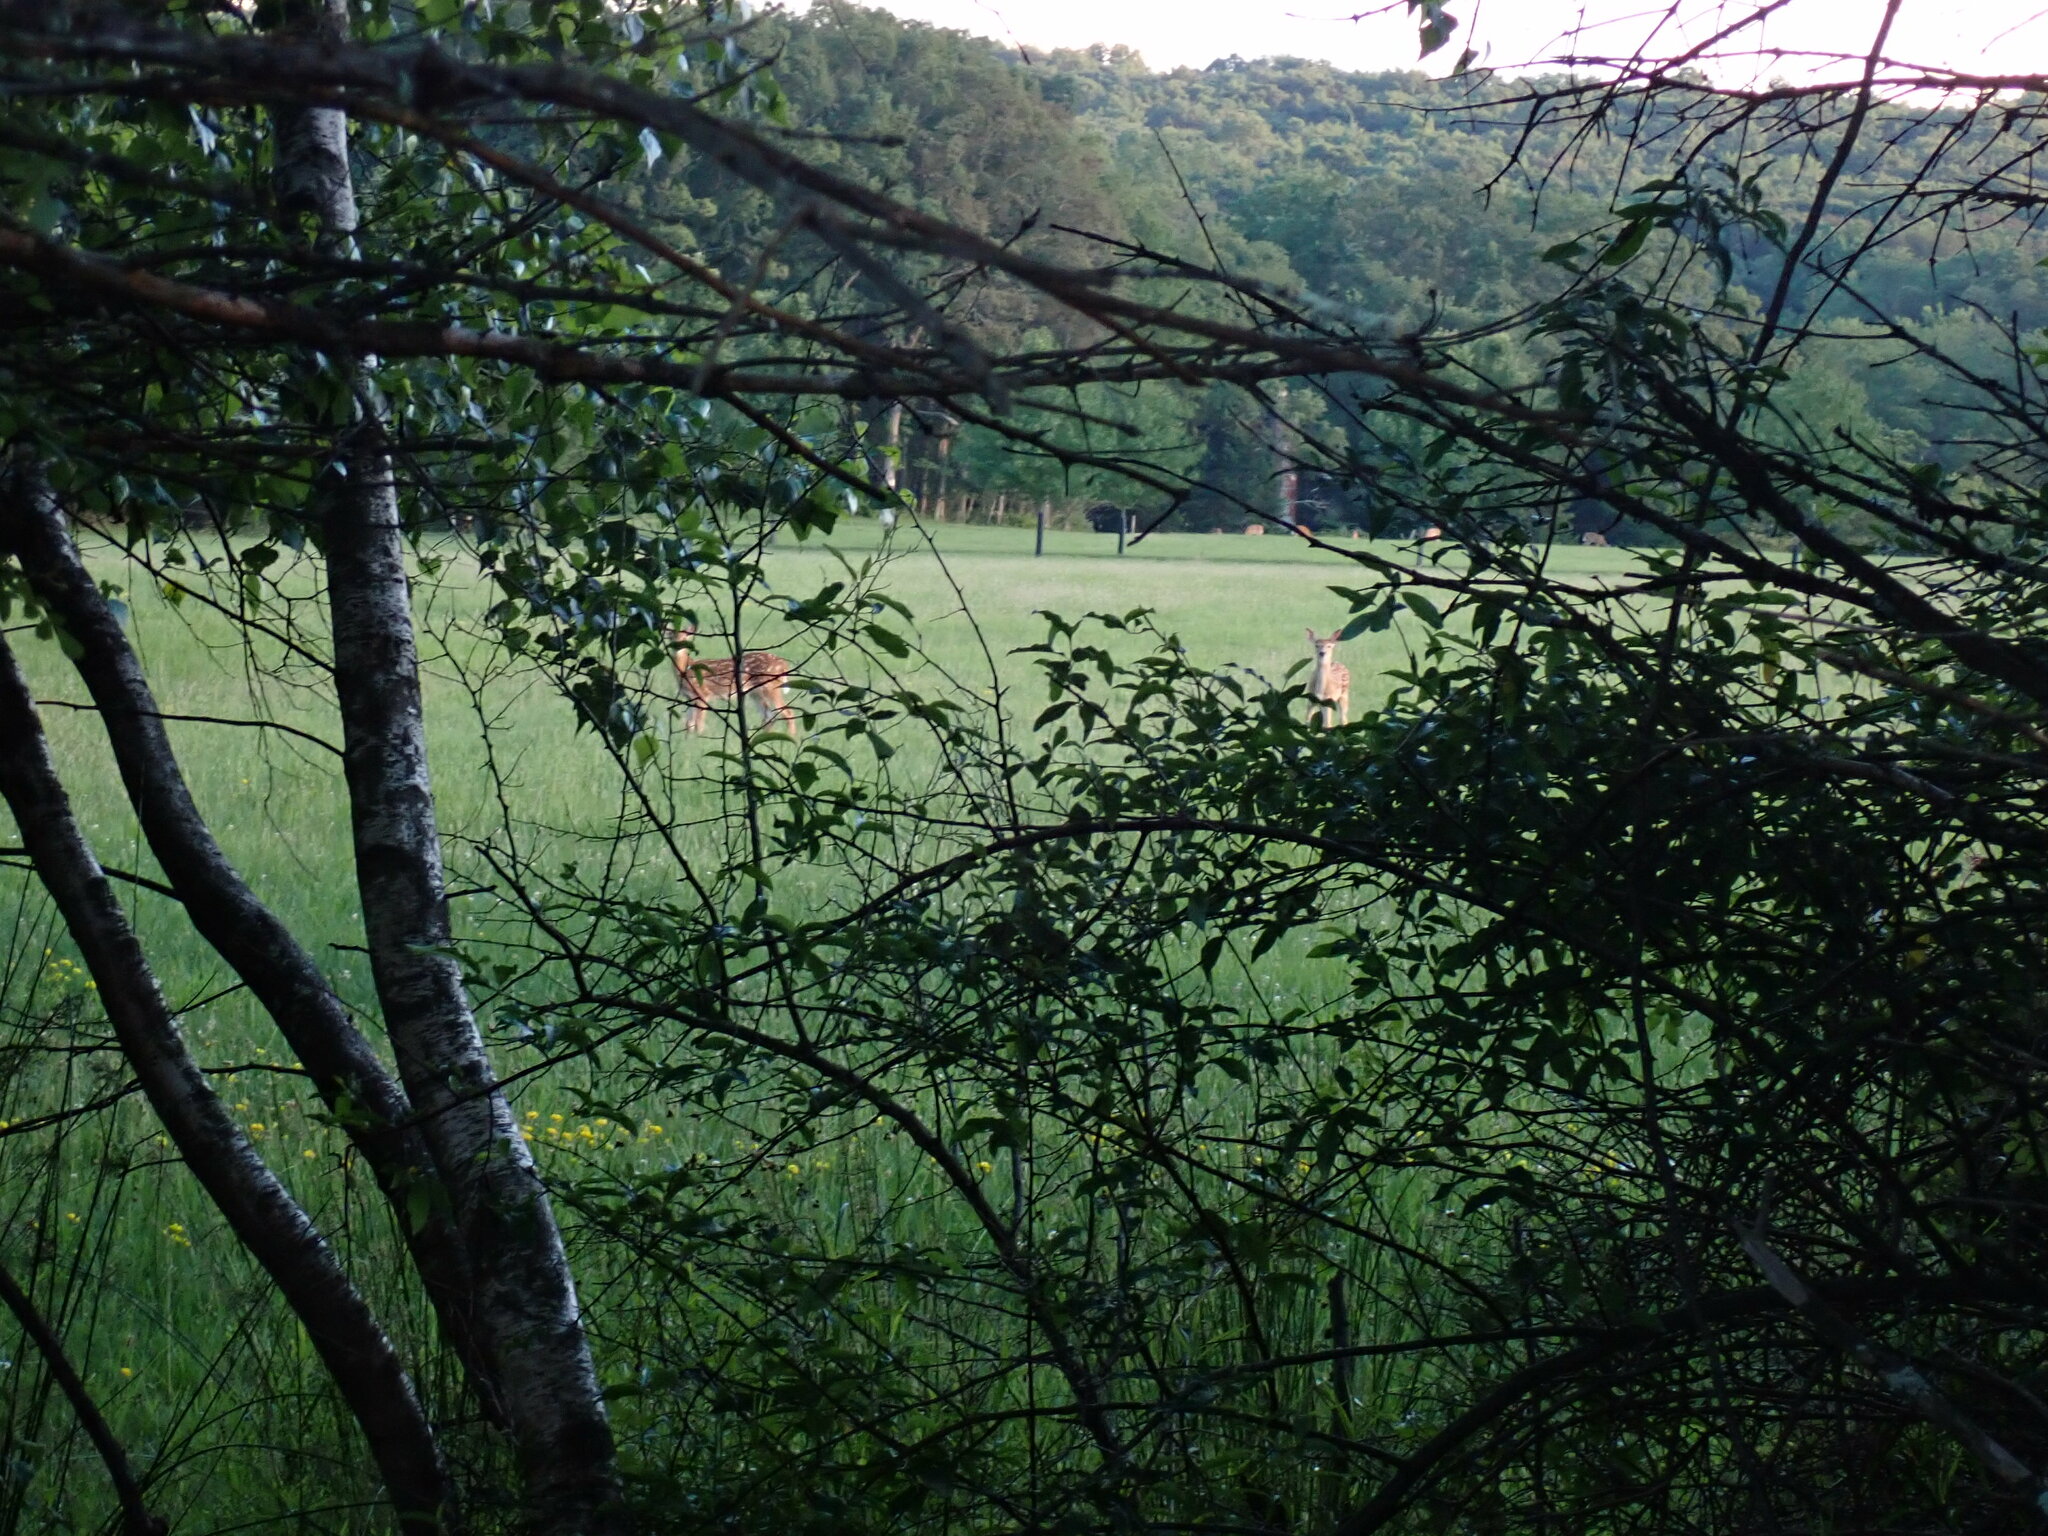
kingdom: Animalia
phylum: Chordata
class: Mammalia
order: Artiodactyla
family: Cervidae
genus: Odocoileus
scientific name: Odocoileus virginianus
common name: White-tailed deer
